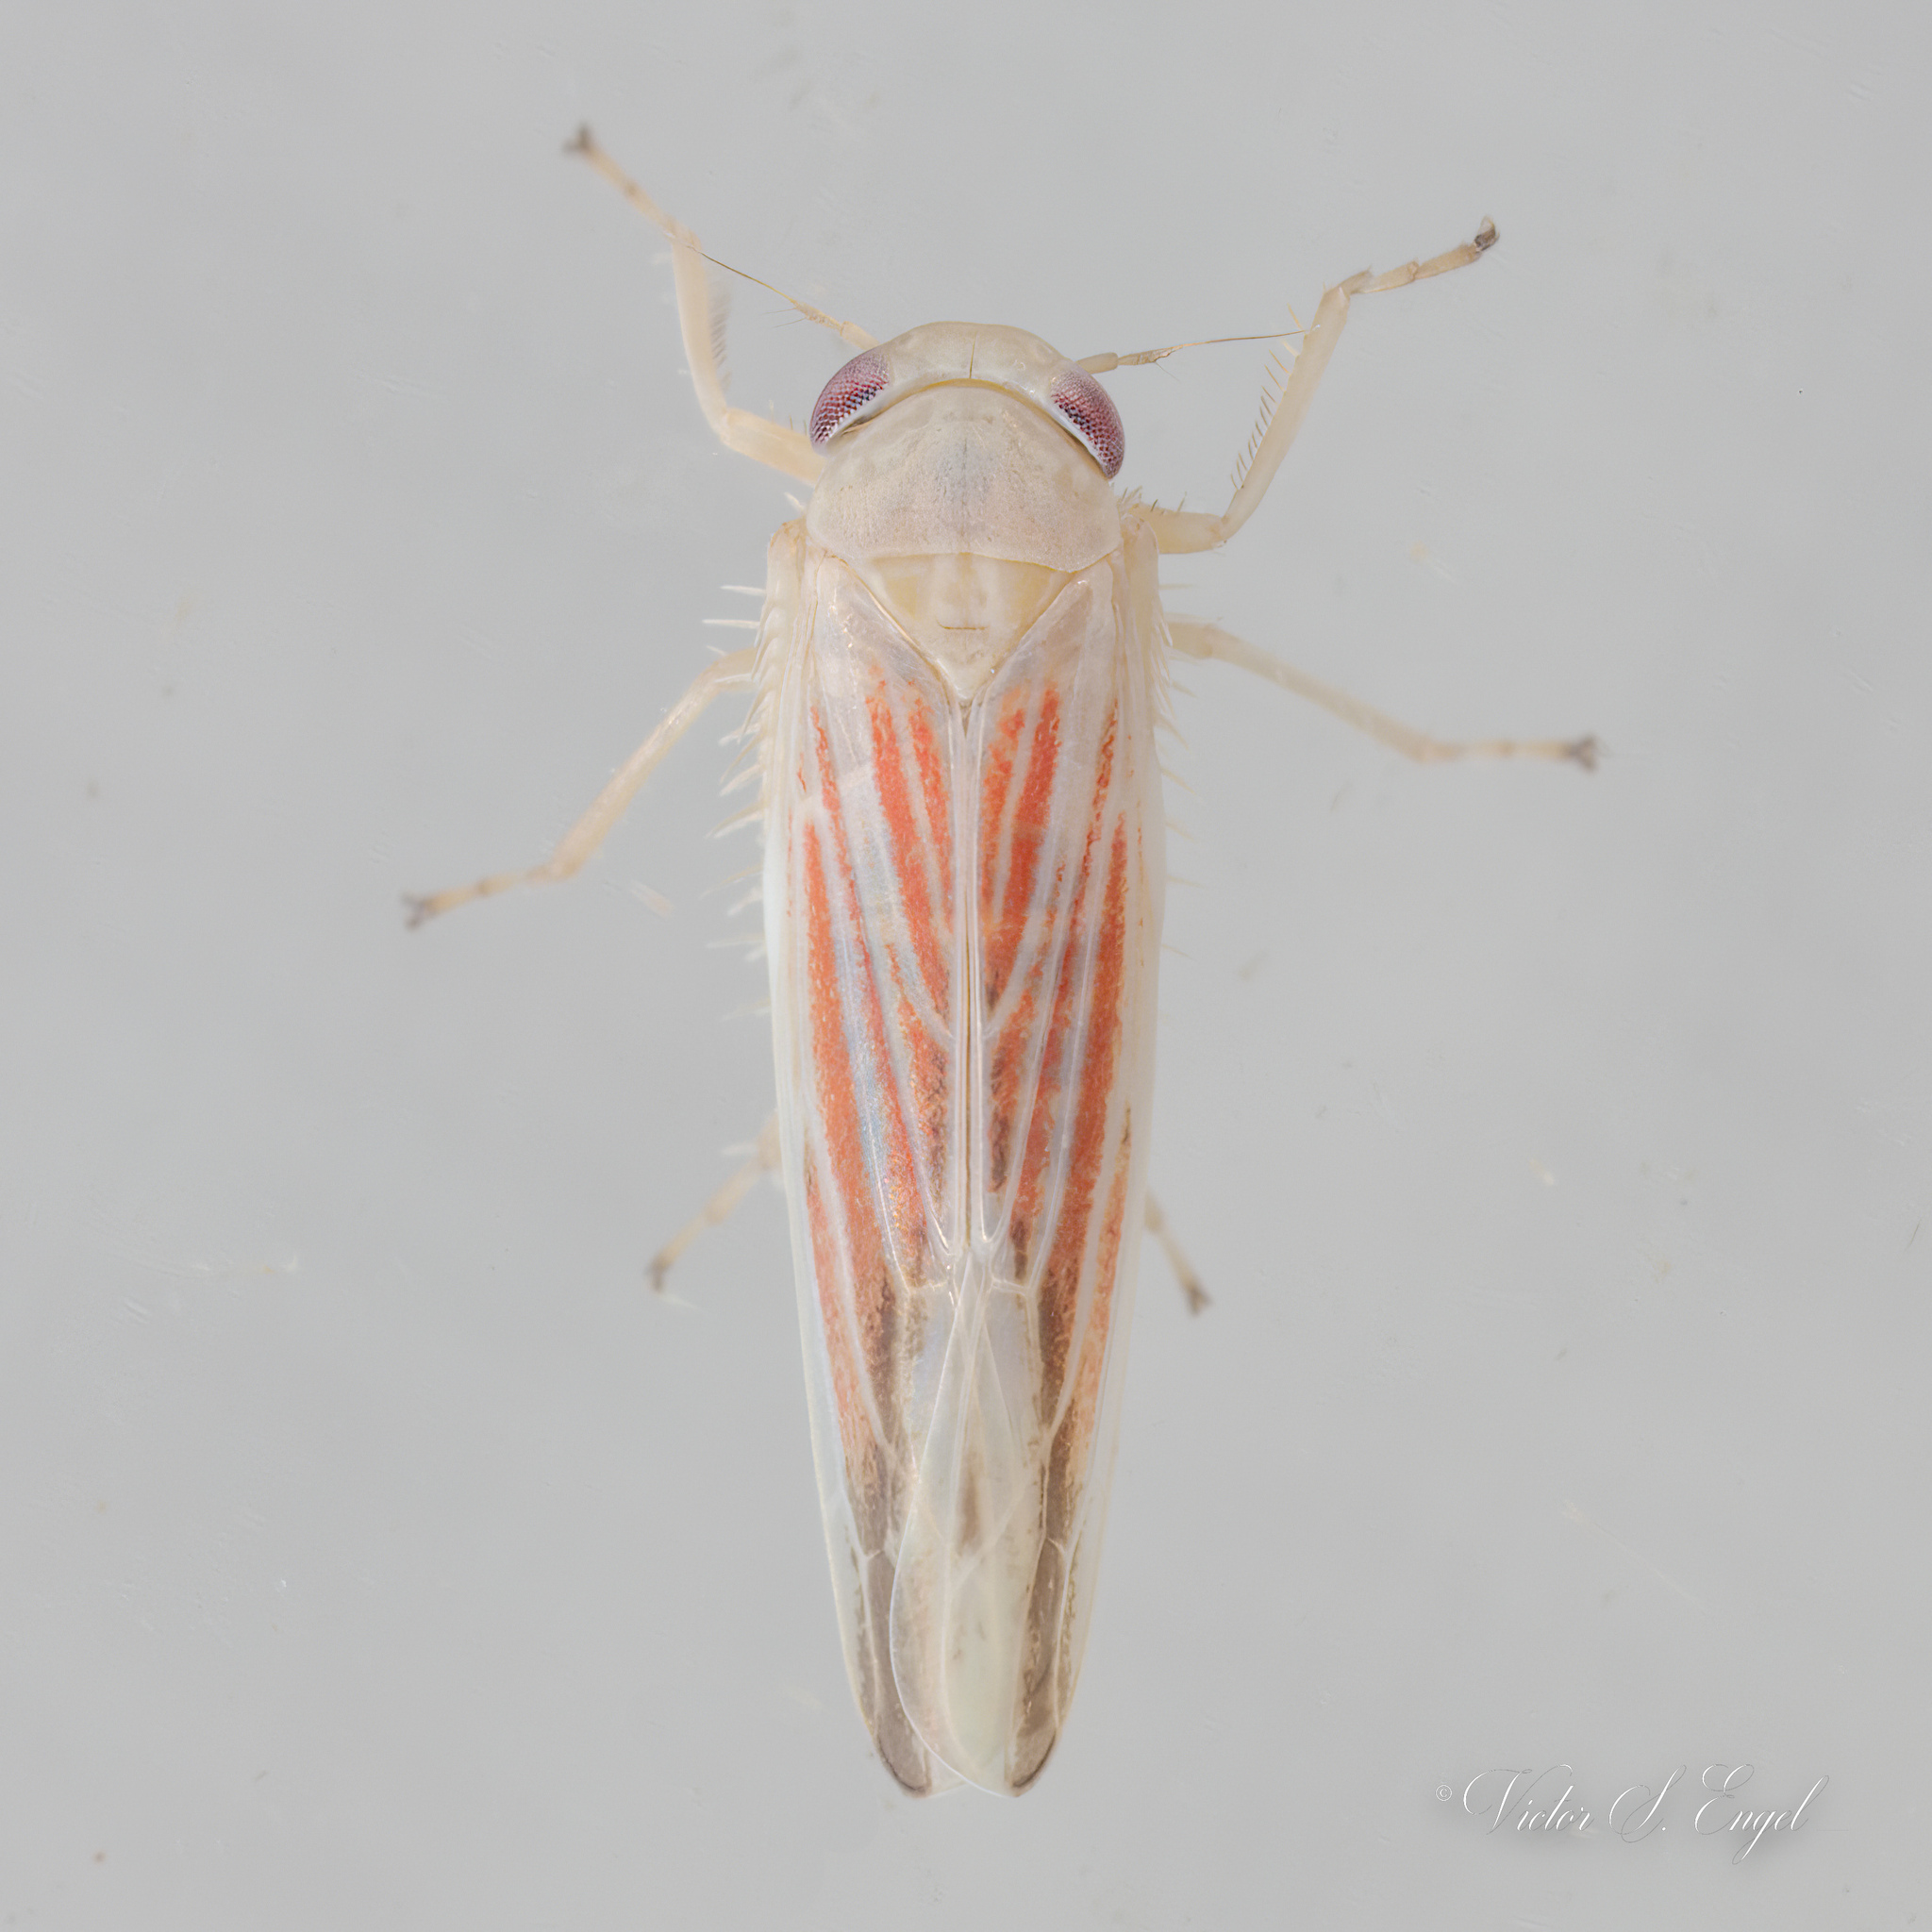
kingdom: Animalia
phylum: Arthropoda
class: Insecta
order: Hemiptera
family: Cicadellidae
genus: Balclutha
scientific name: Balclutha rubrostriata
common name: Red-streaked leafhopper
